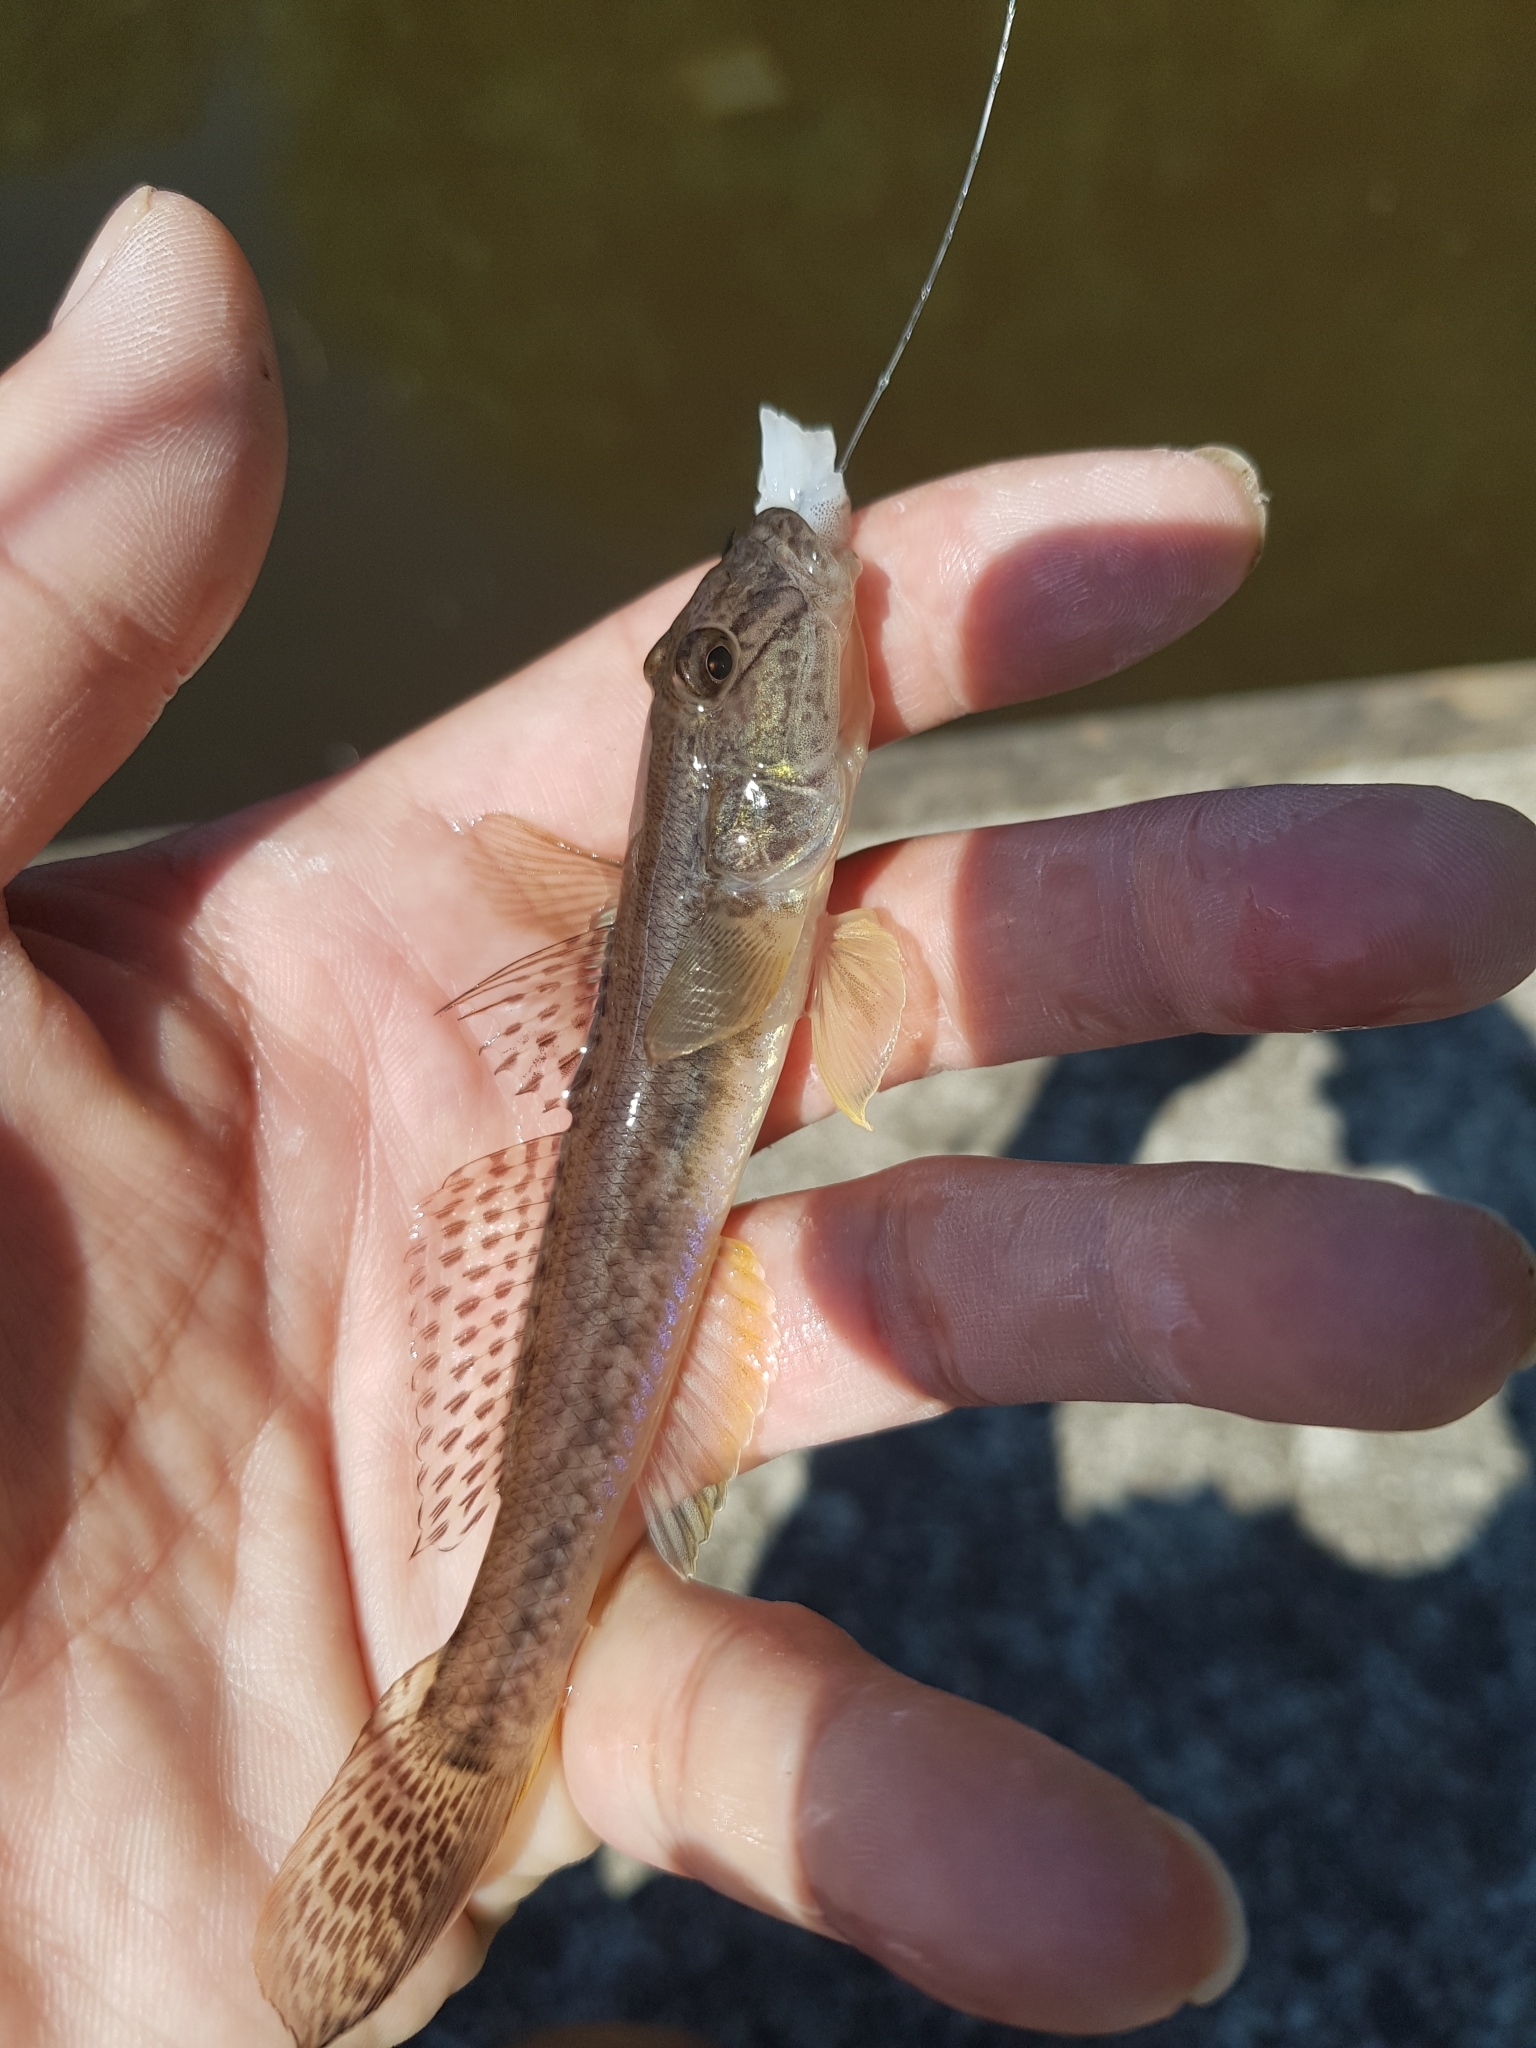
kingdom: Animalia
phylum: Chordata
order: Perciformes
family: Gobiidae
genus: Acanthogobius
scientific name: Acanthogobius flavimanus
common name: Yellowfin goby
